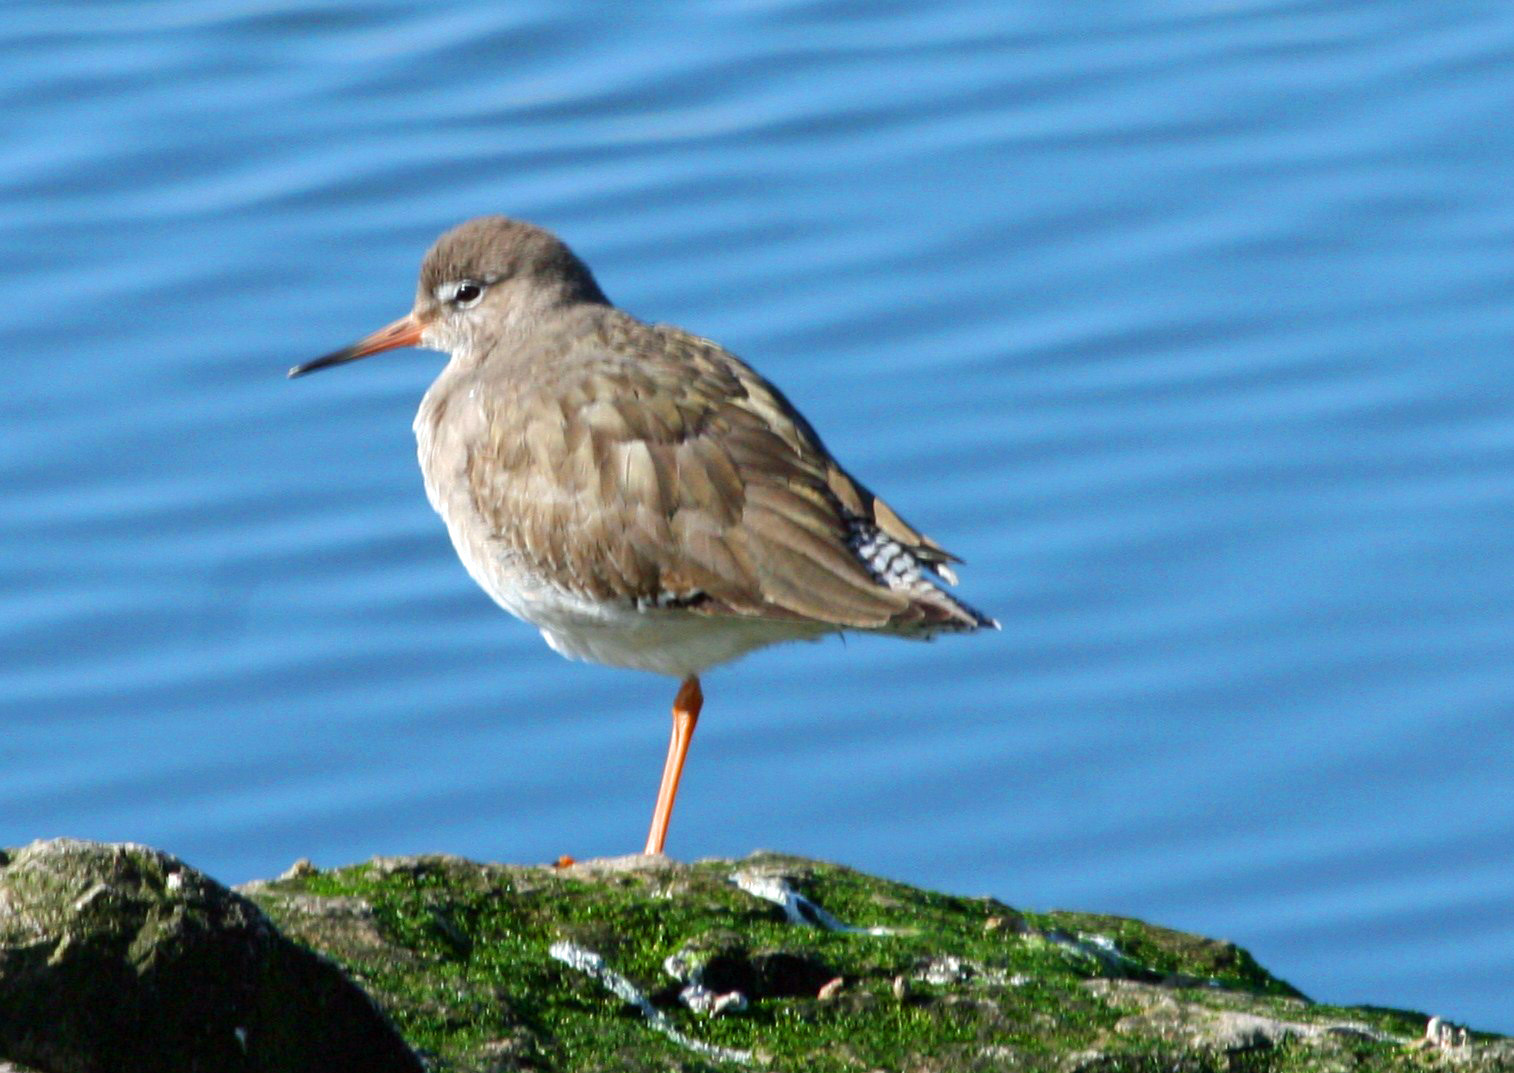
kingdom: Animalia
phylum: Chordata
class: Aves
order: Charadriiformes
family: Scolopacidae
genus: Tringa
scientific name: Tringa totanus
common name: Common redshank
